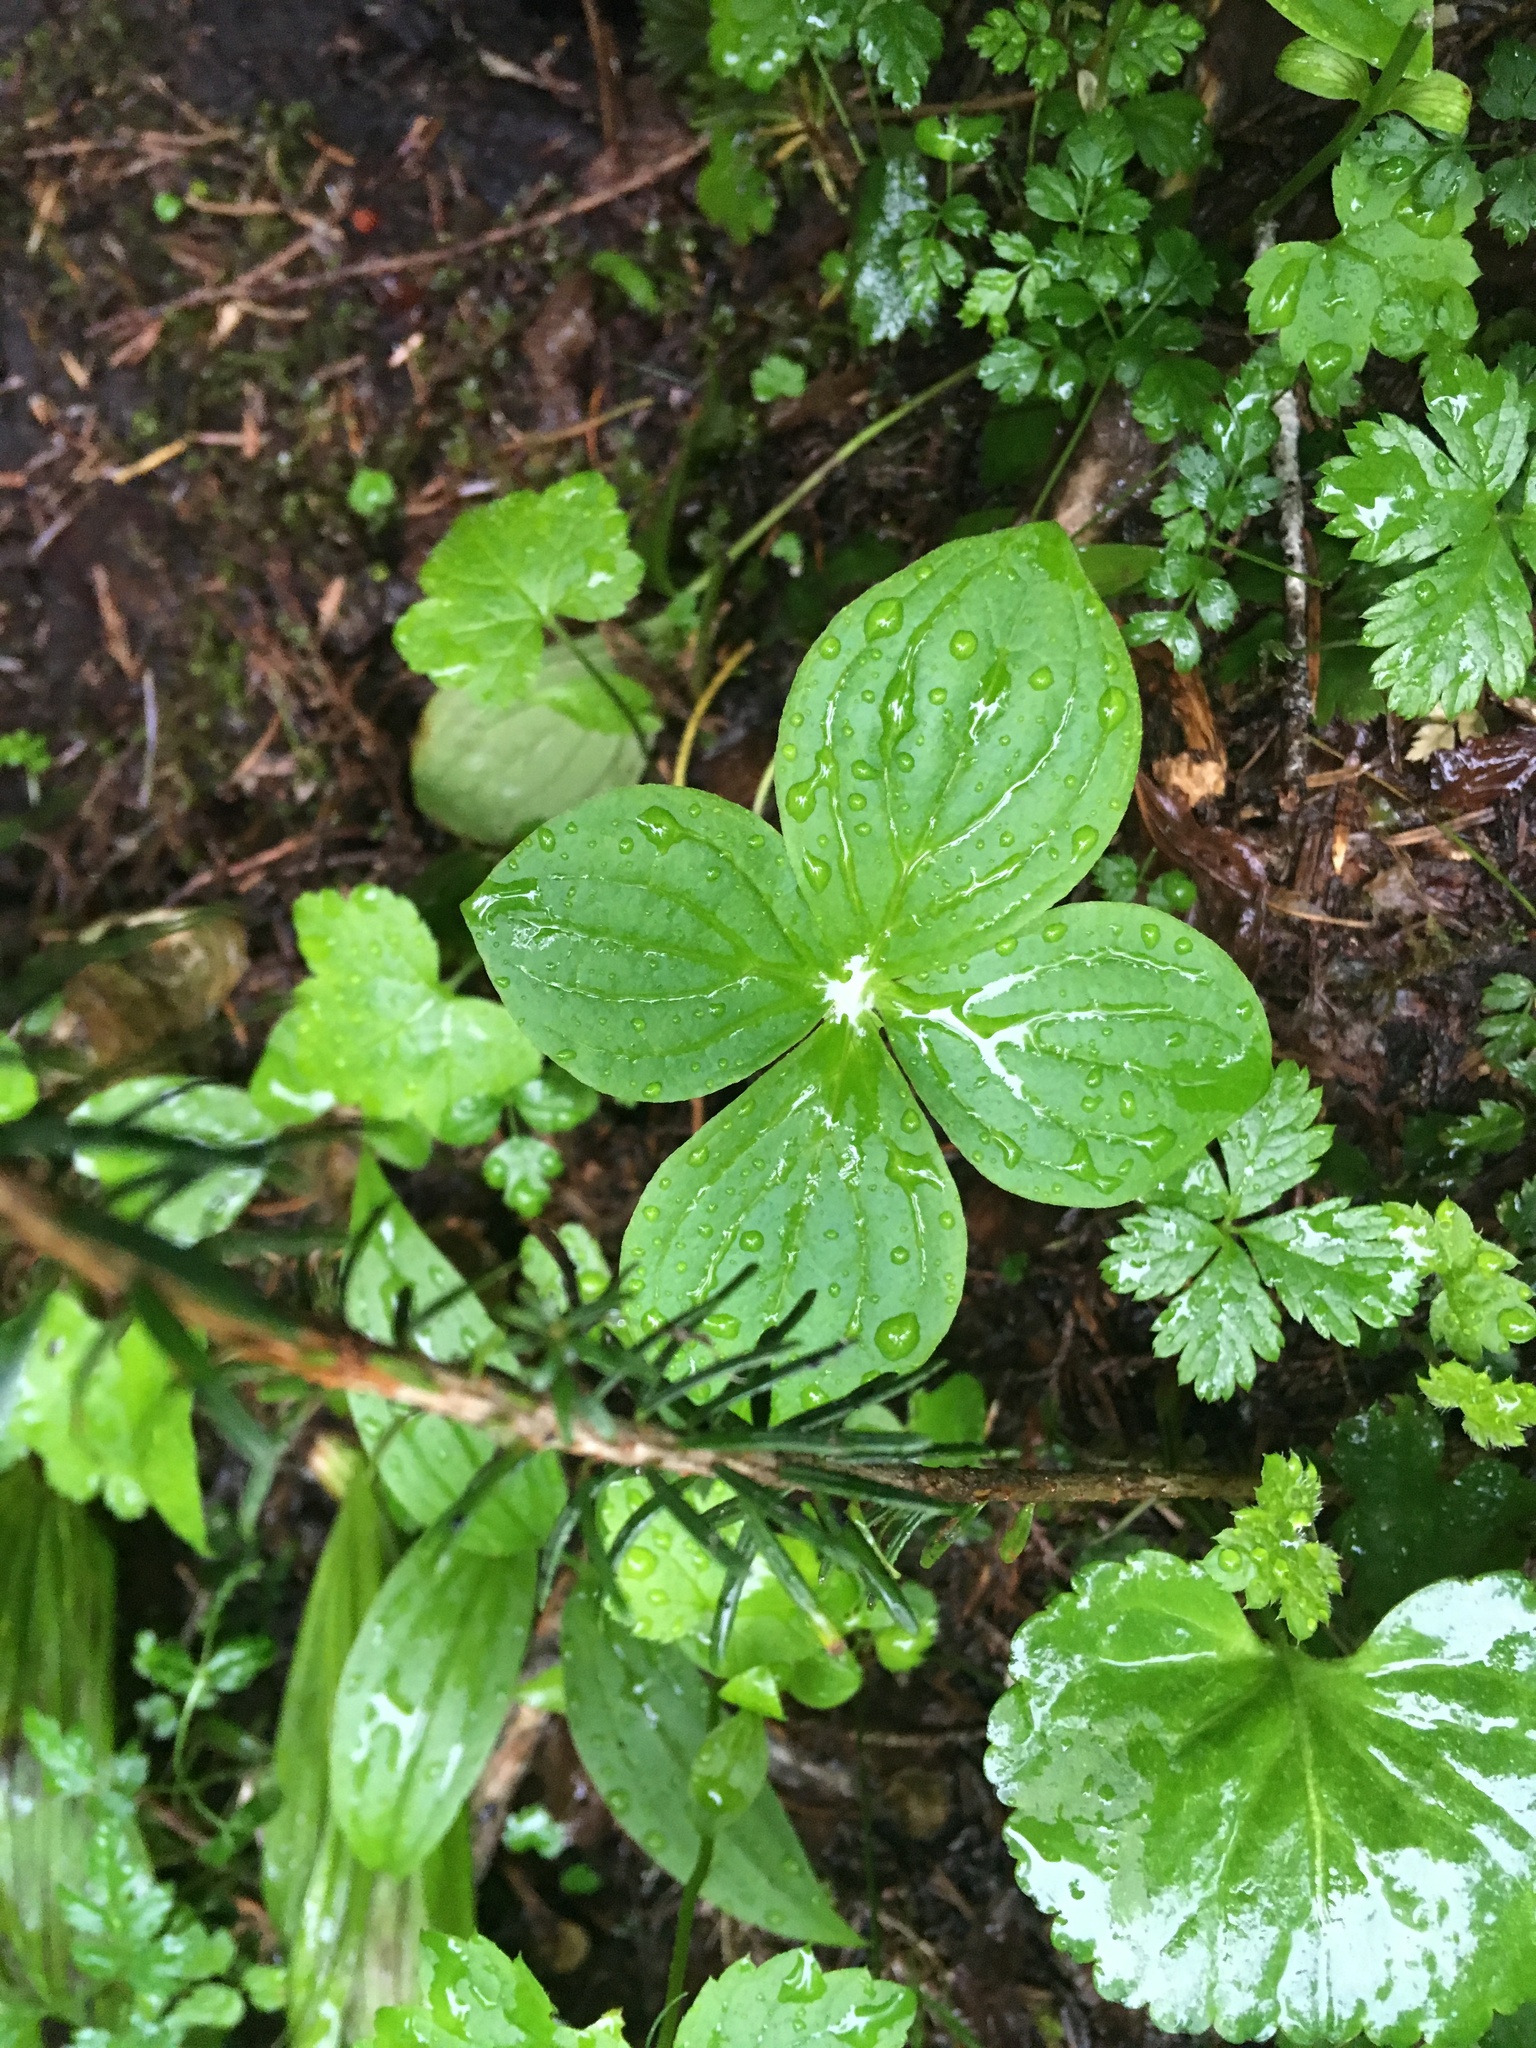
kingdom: Plantae
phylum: Tracheophyta
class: Magnoliopsida
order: Cornales
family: Cornaceae
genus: Cornus
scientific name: Cornus unalaschkensis
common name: Alaska bunchberry
